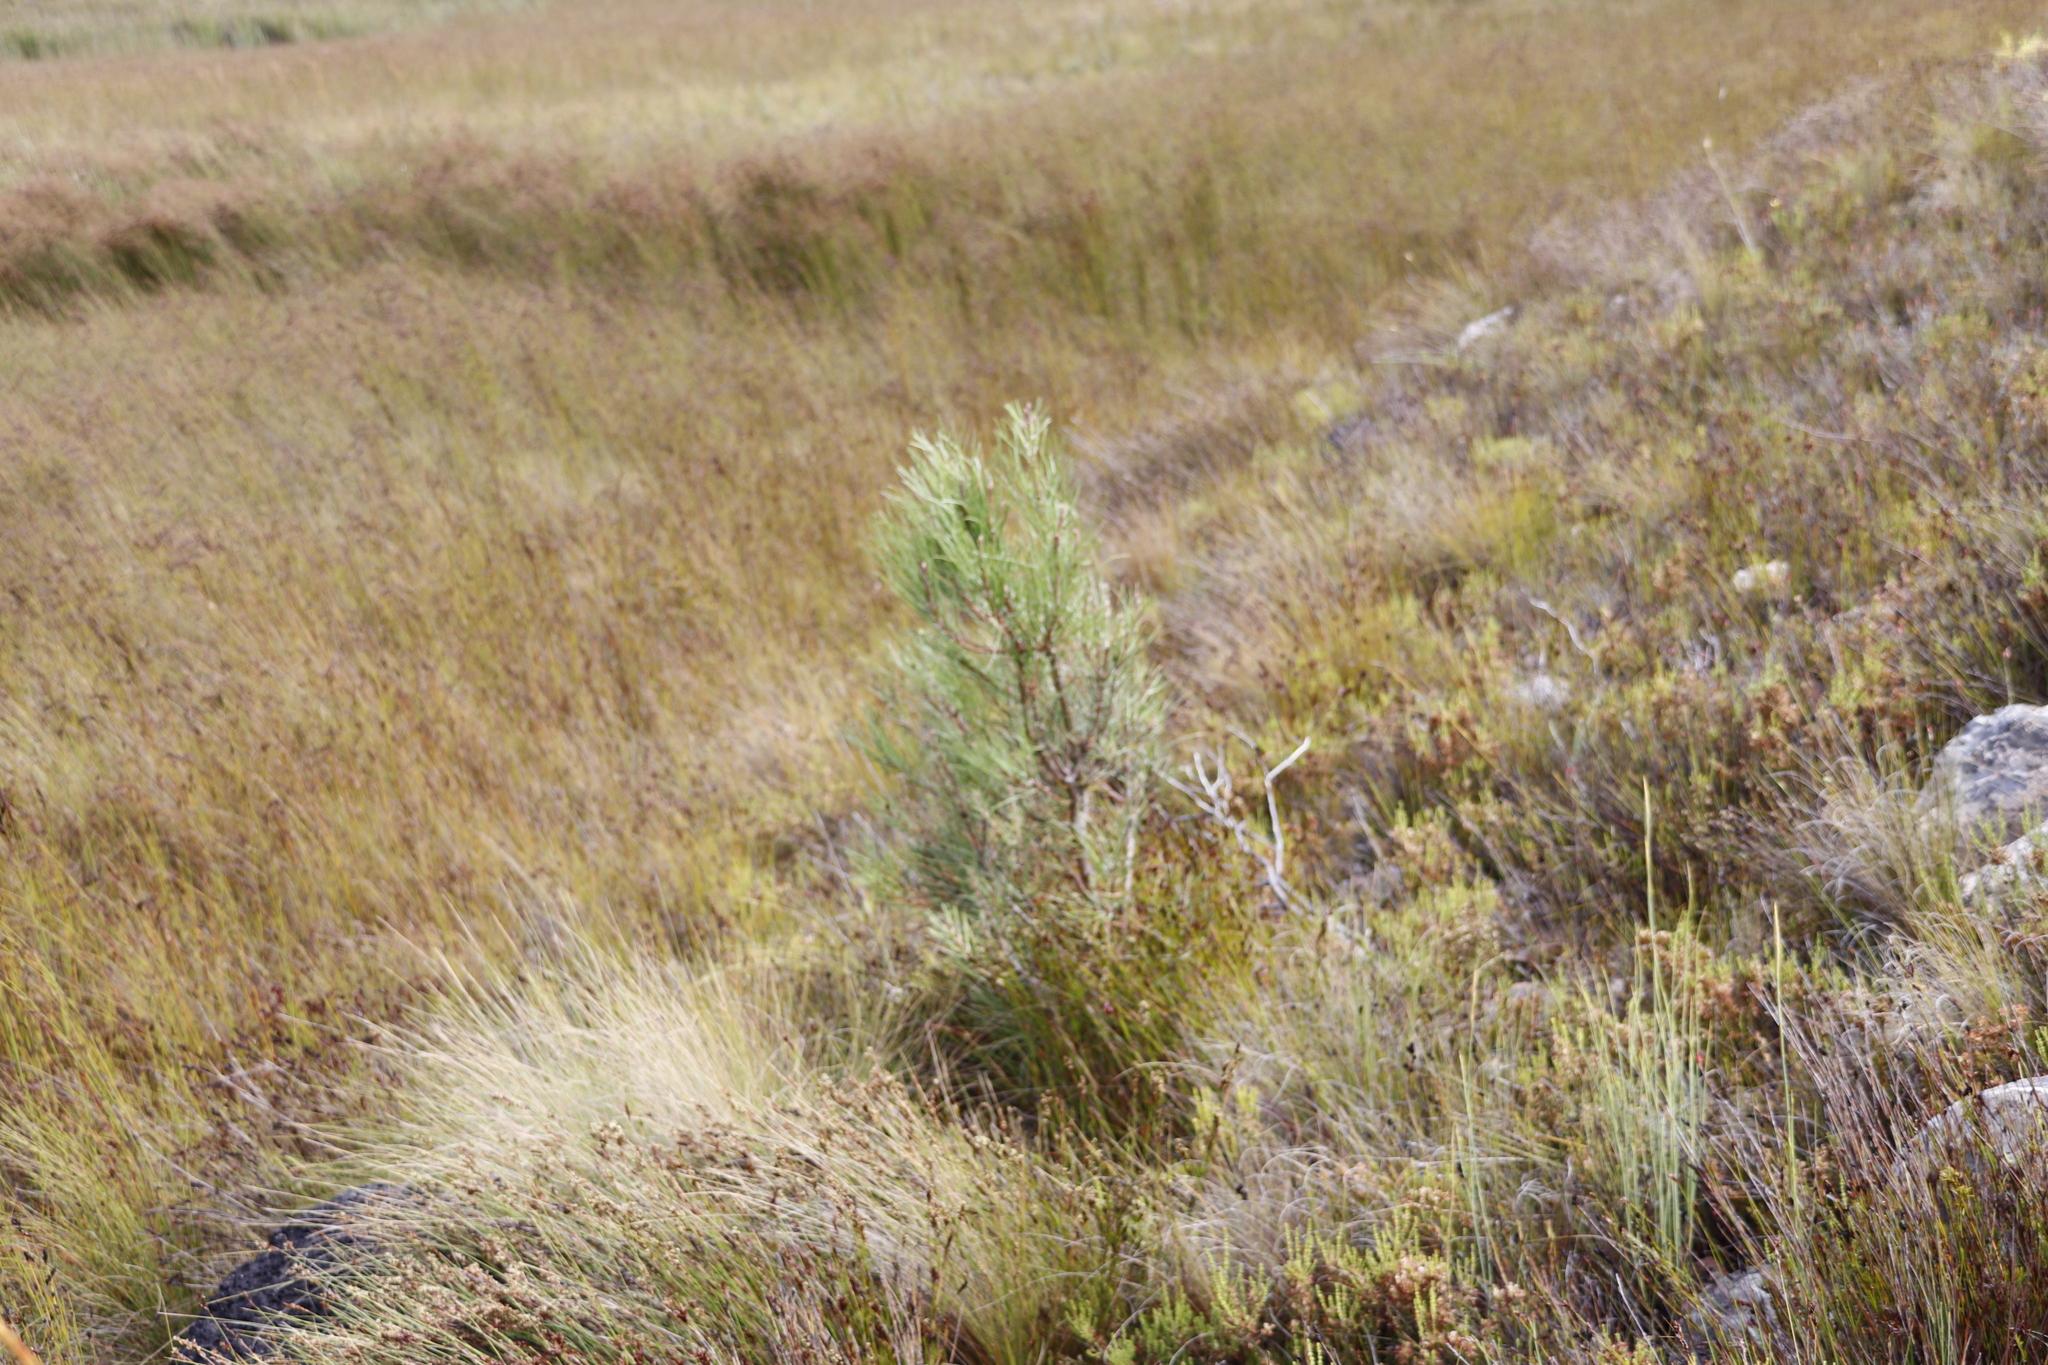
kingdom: Plantae
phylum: Tracheophyta
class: Pinopsida
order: Pinales
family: Pinaceae
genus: Pinus
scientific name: Pinus pinaster
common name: Maritime pine
